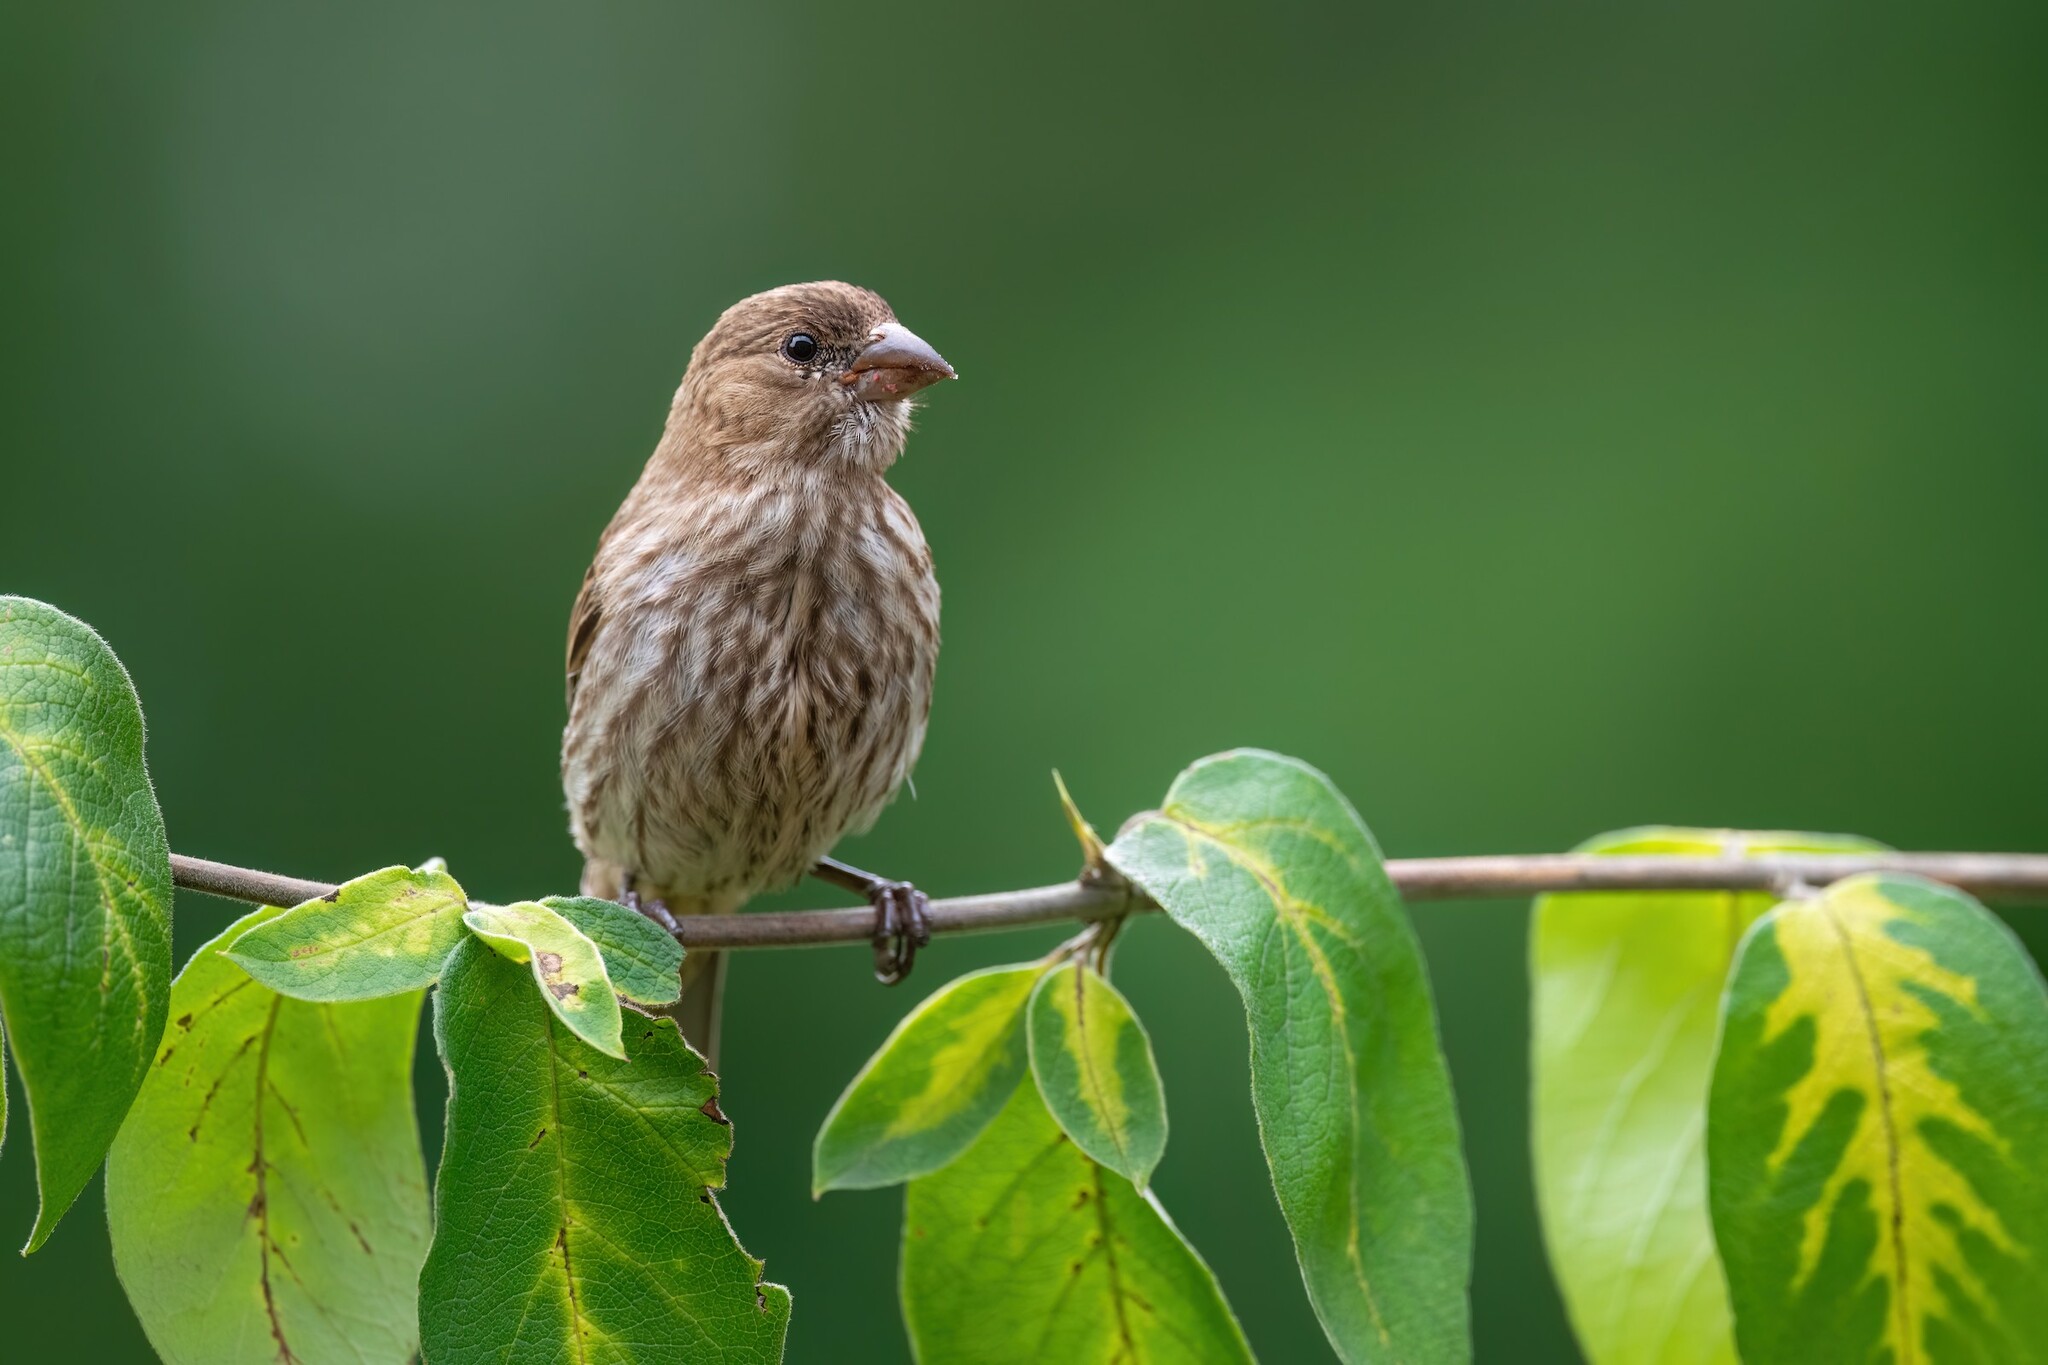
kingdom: Animalia
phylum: Chordata
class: Aves
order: Passeriformes
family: Fringillidae
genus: Haemorhous
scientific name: Haemorhous mexicanus
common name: House finch
